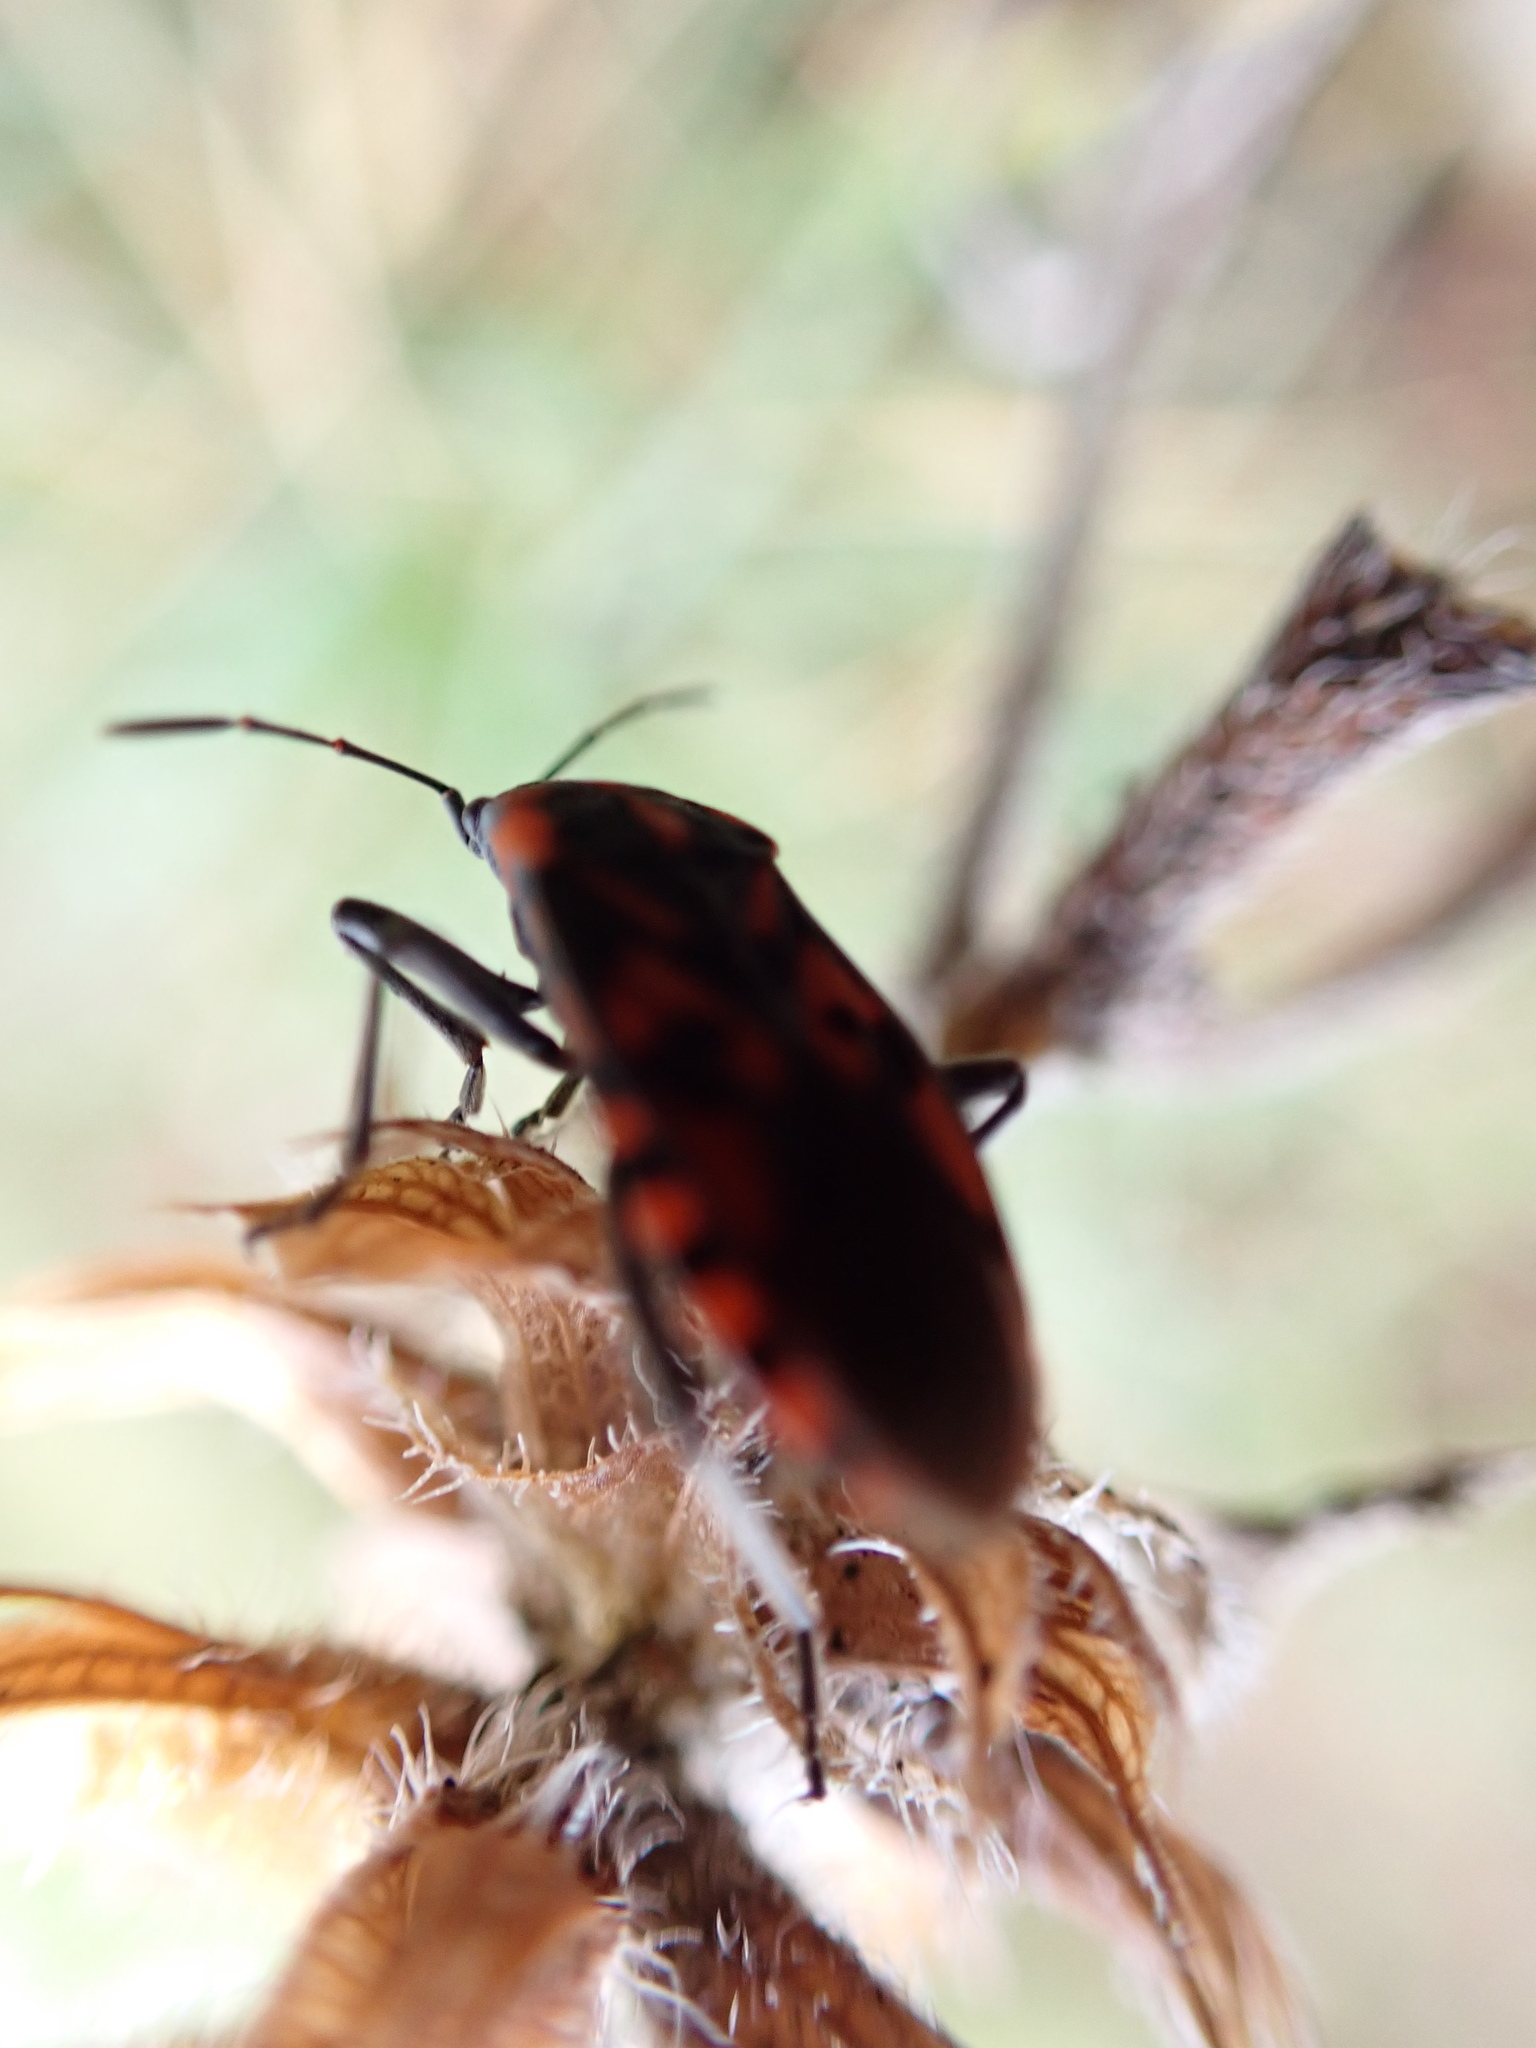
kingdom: Animalia
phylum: Arthropoda
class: Insecta
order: Hemiptera
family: Lygaeidae
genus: Spilostethus
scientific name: Spilostethus saxatilis
